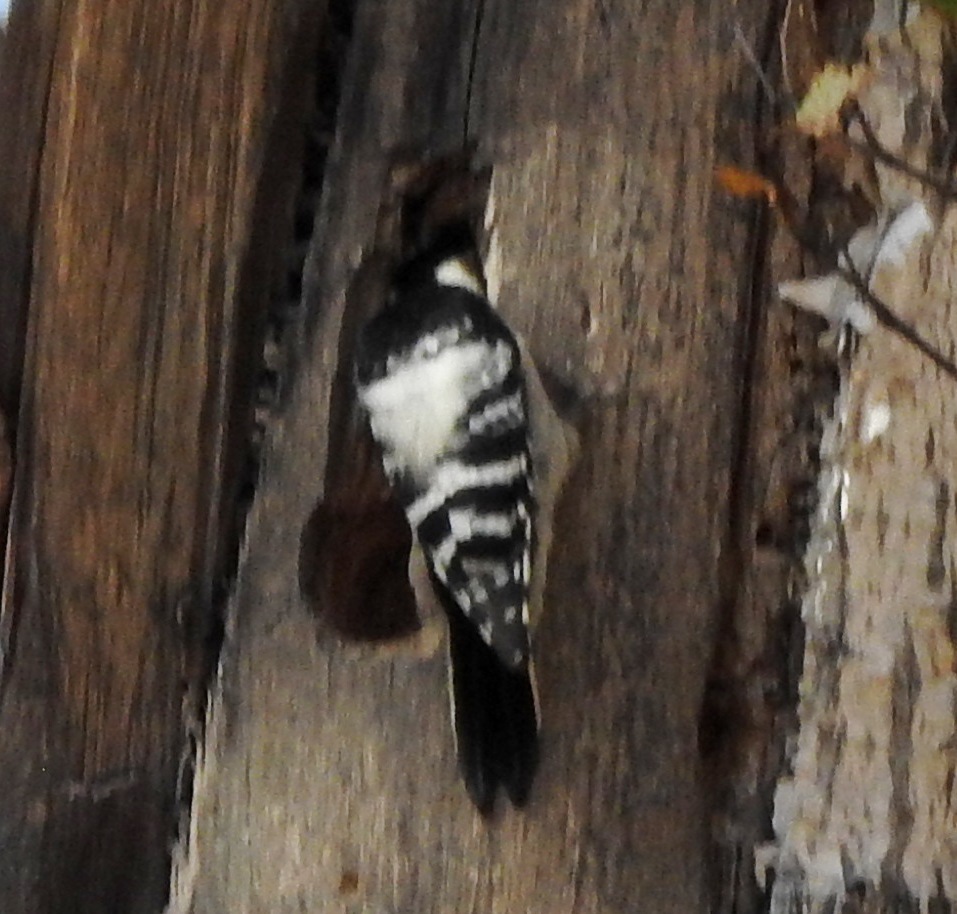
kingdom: Animalia
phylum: Chordata
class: Aves
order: Piciformes
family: Picidae
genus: Dendrocopos
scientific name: Dendrocopos leucotos
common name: White-backed woodpecker
